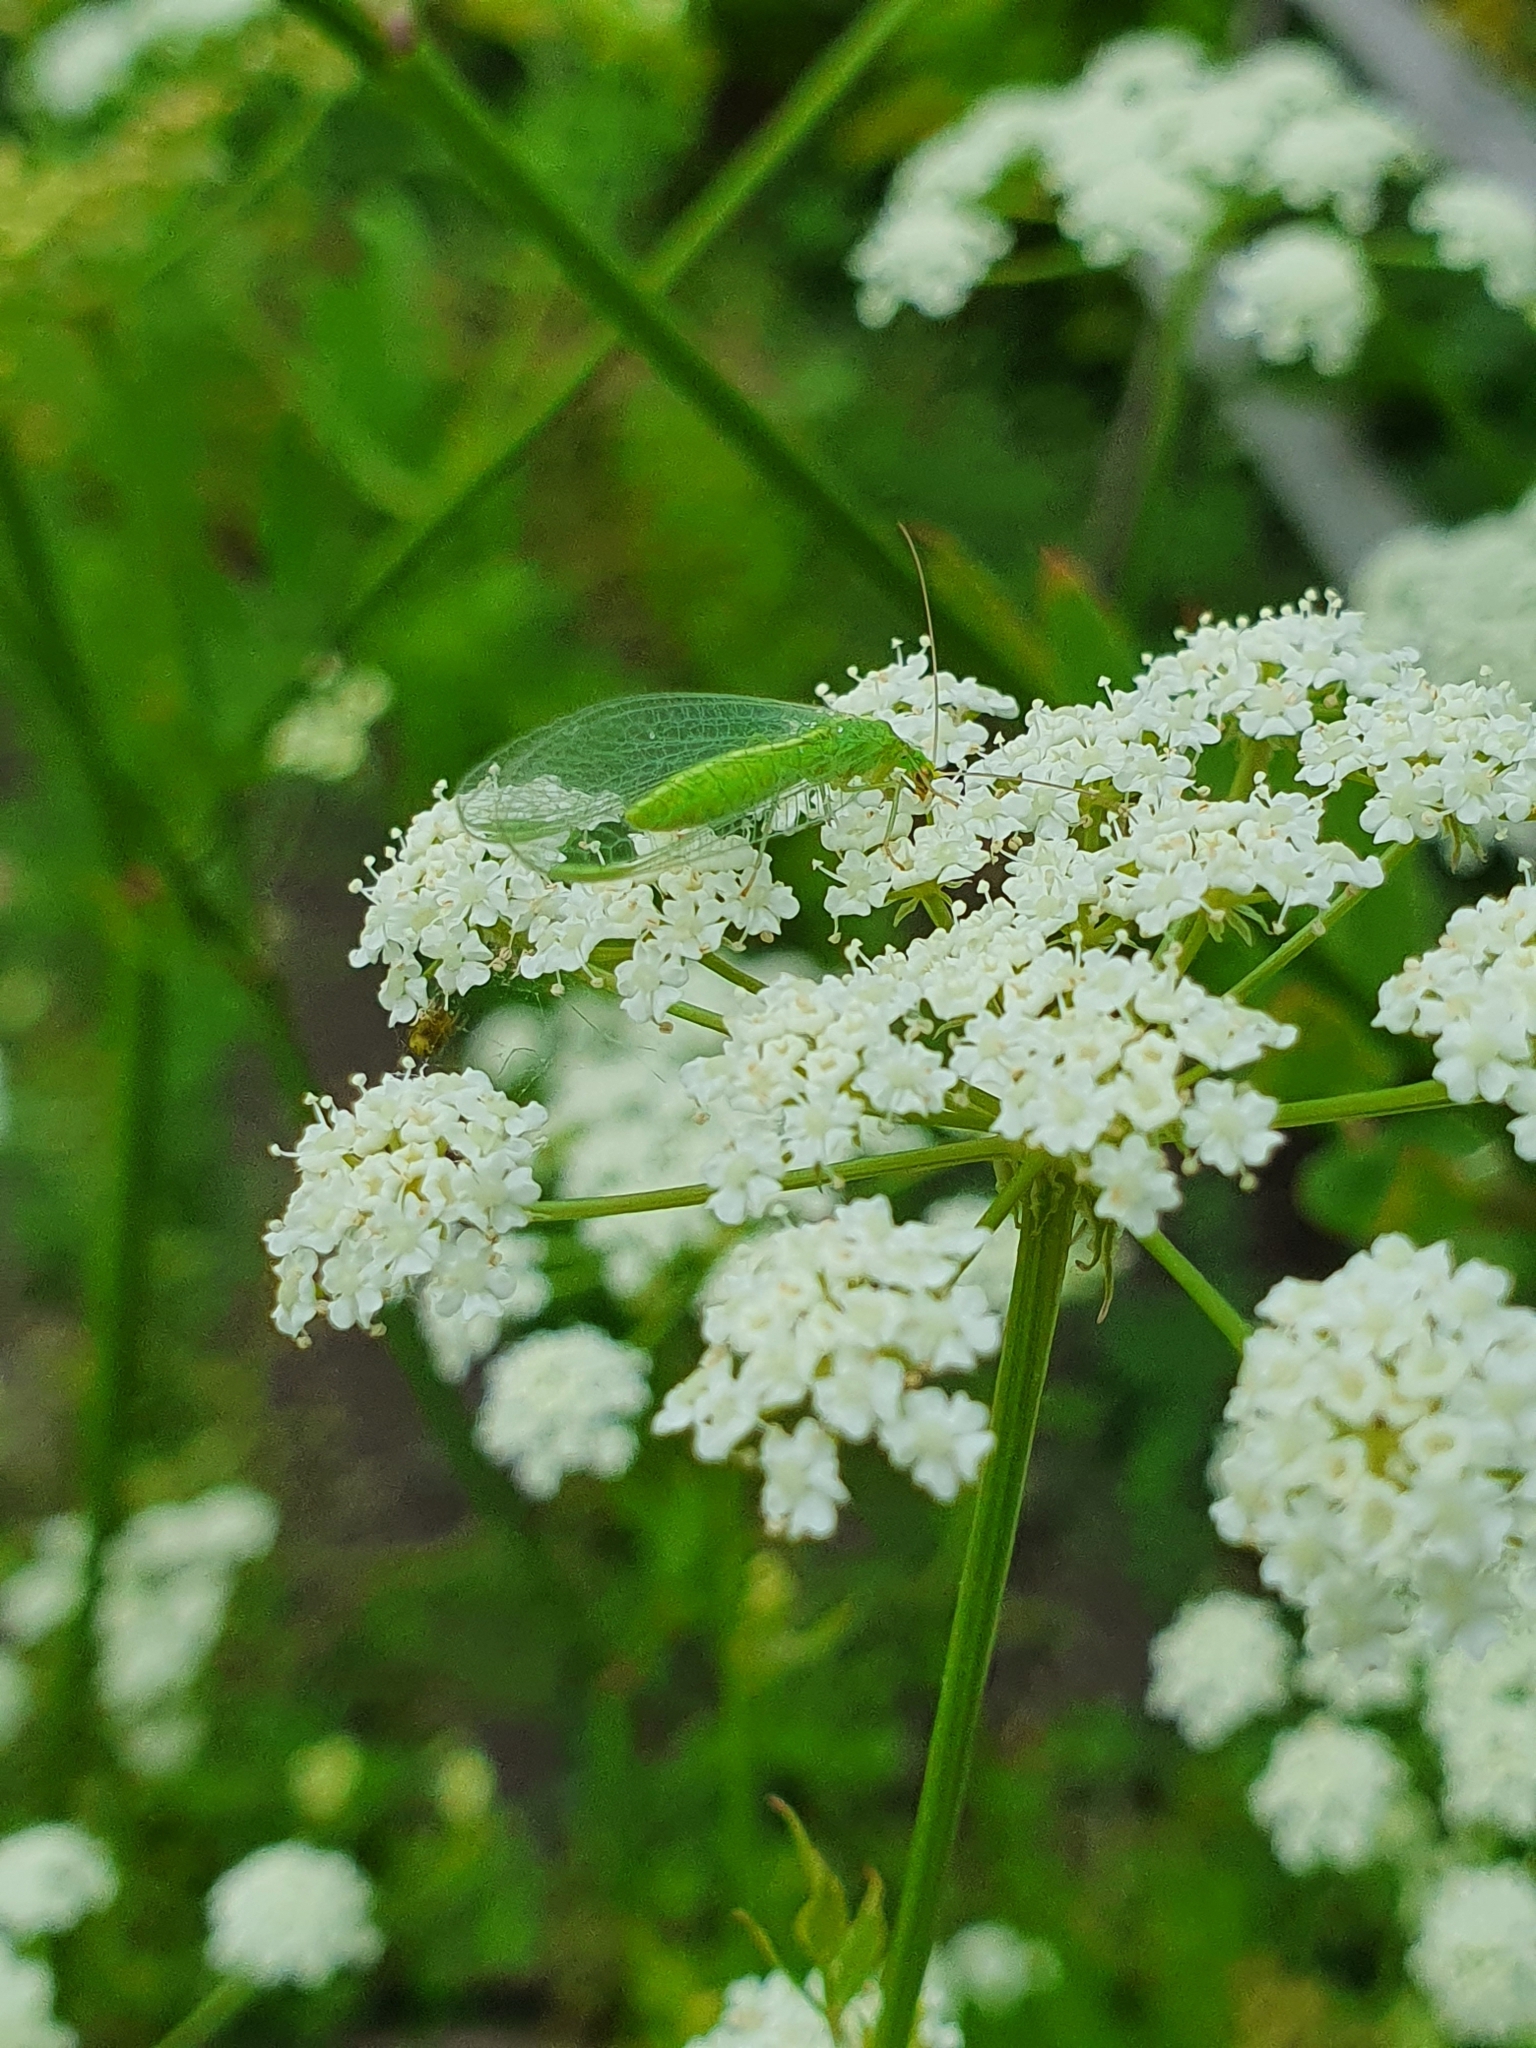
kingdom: Animalia
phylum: Arthropoda
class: Insecta
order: Neuroptera
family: Chrysopidae
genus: Chrysoperla
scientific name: Chrysoperla
